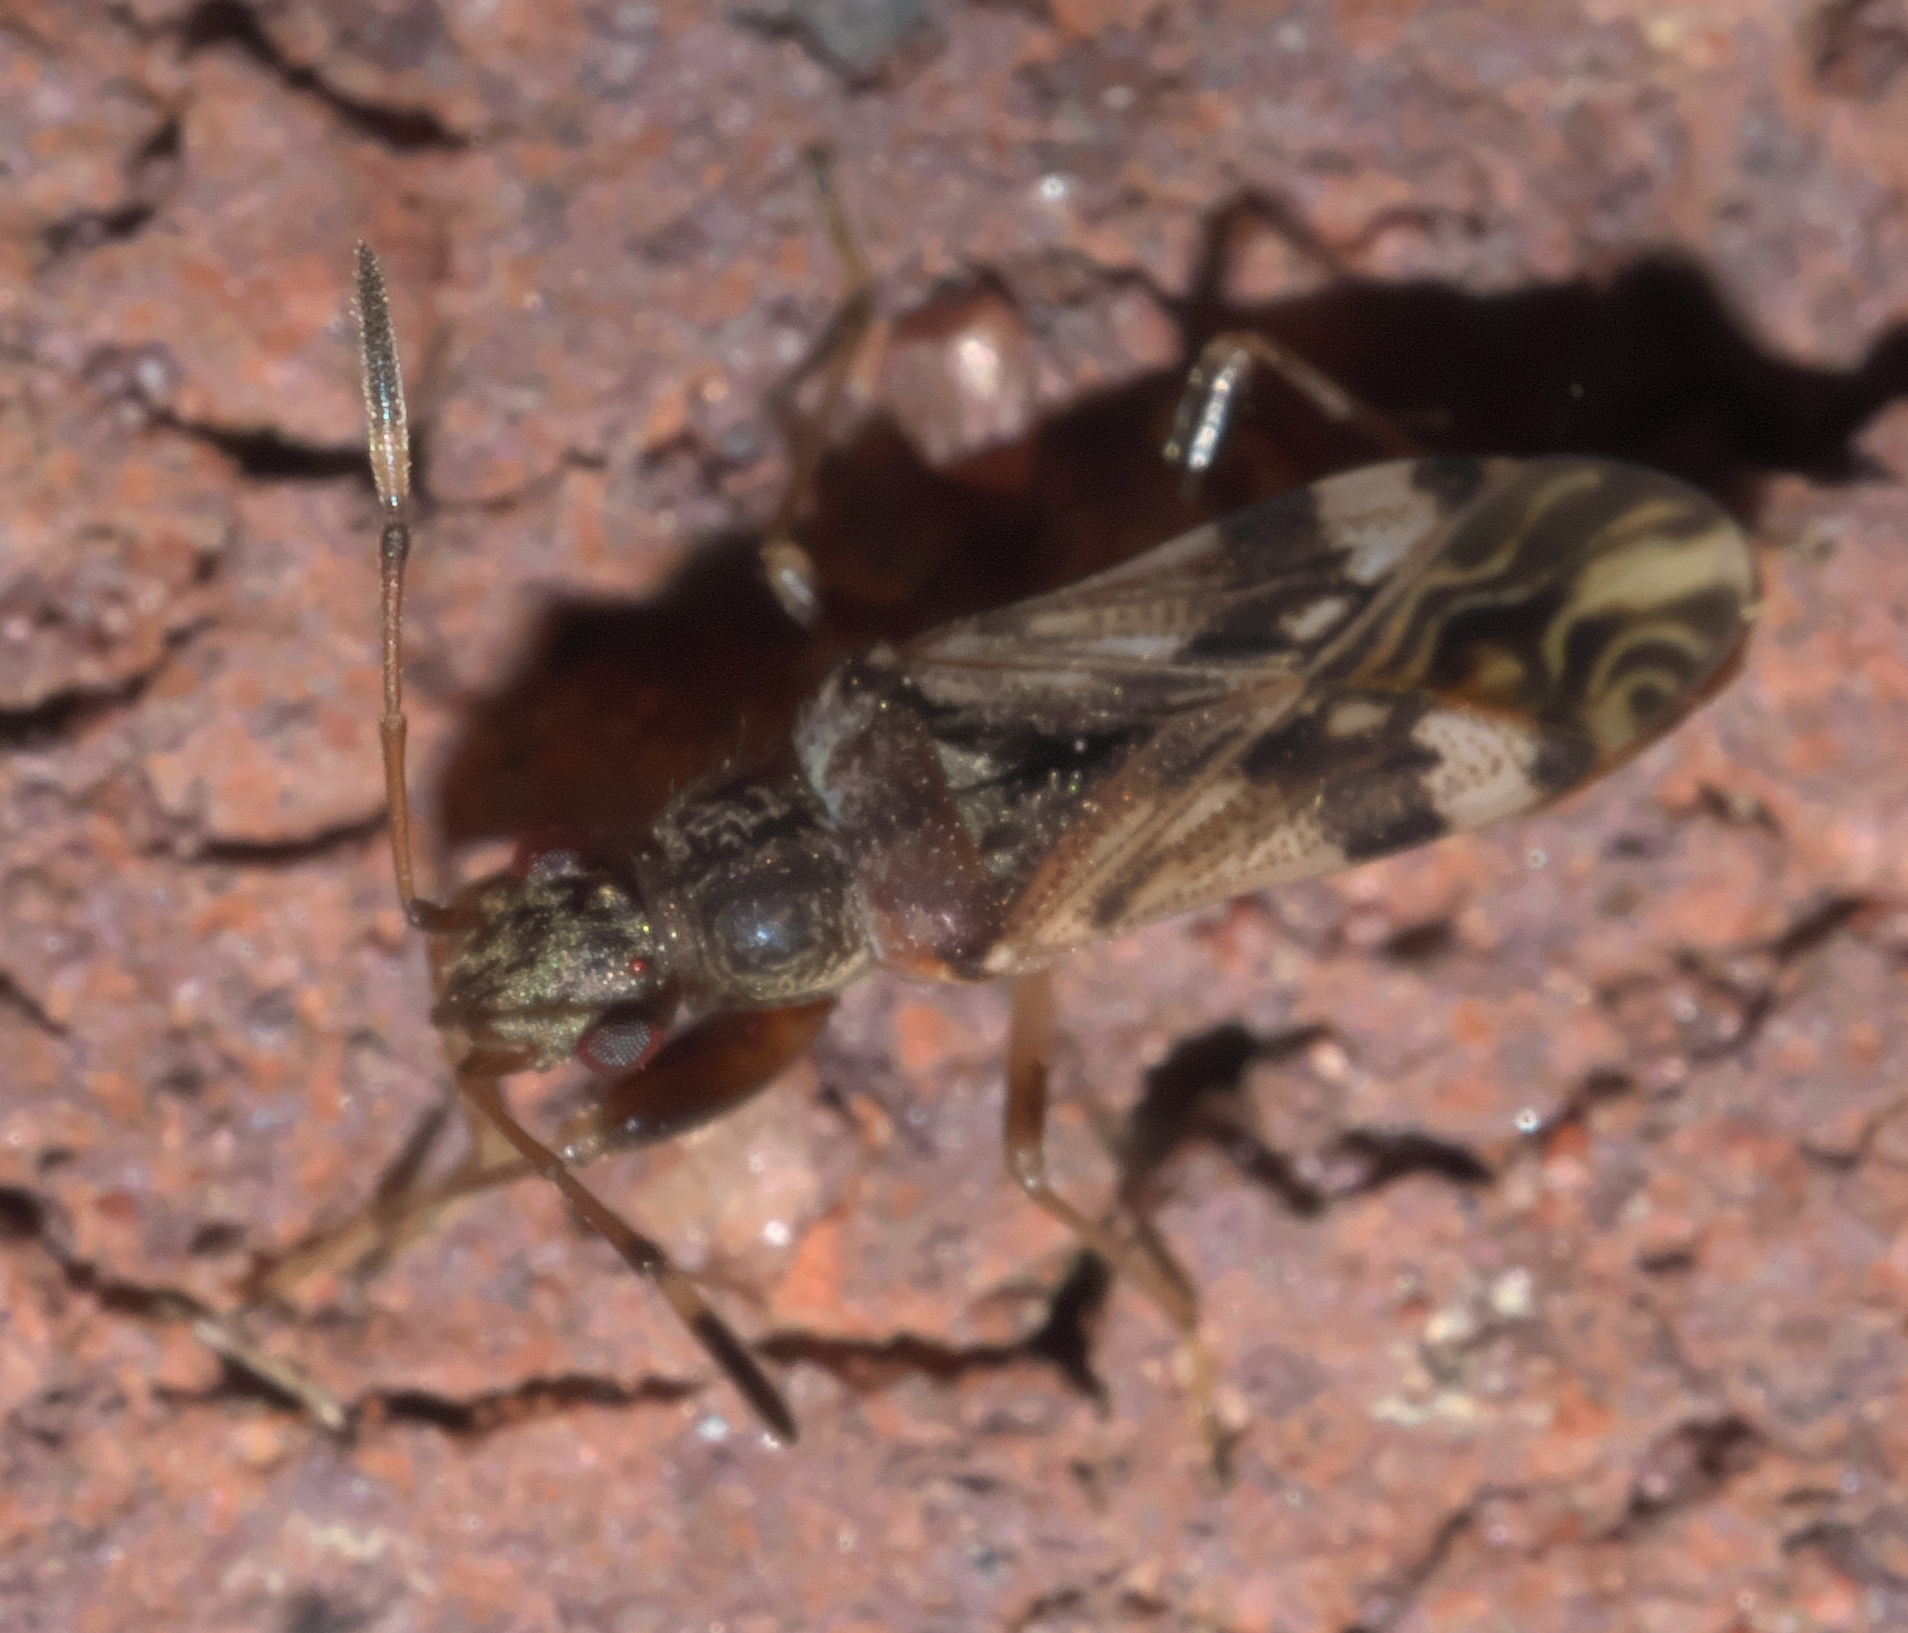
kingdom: Animalia
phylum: Arthropoda
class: Insecta
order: Hemiptera
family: Rhyparochromidae
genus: Neopamera
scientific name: Neopamera albocincta
